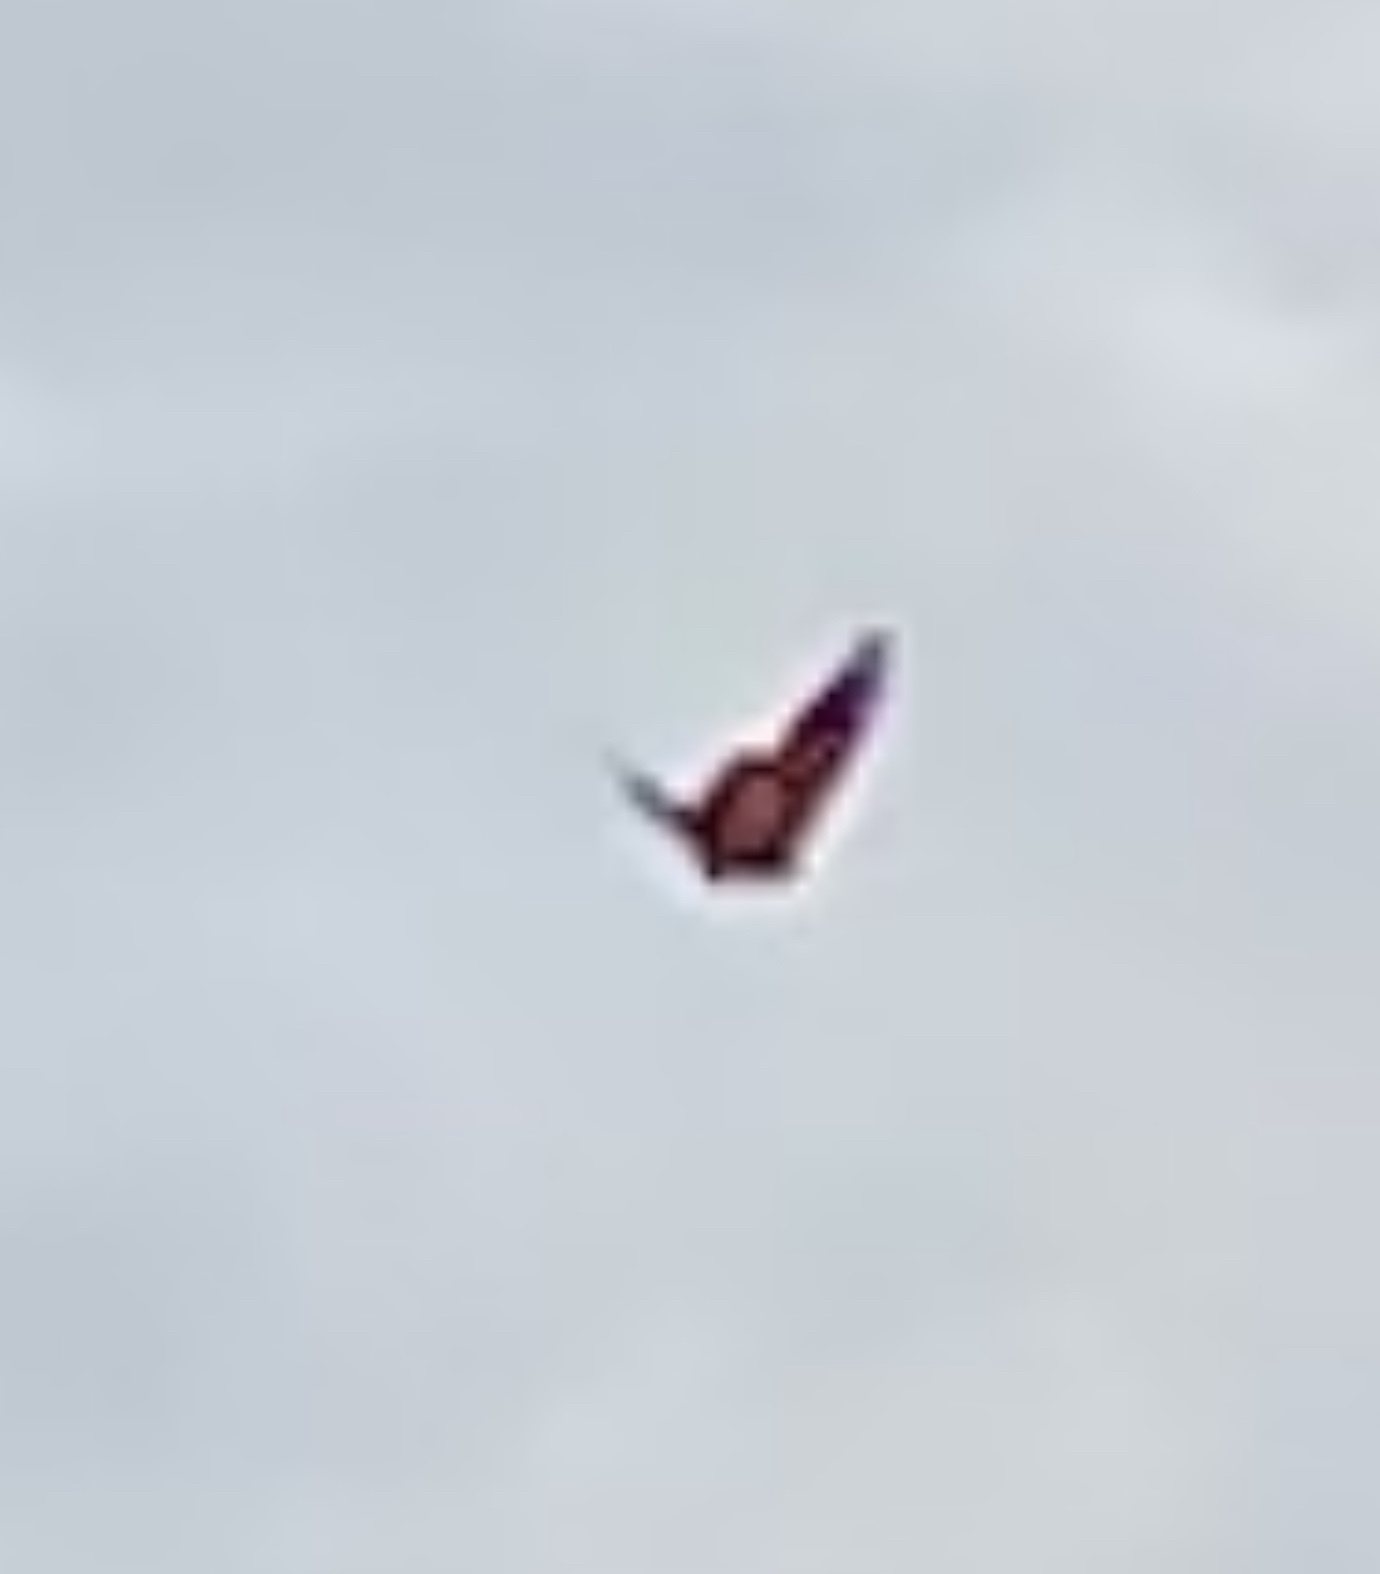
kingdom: Animalia
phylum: Arthropoda
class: Insecta
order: Lepidoptera
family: Nymphalidae
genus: Danaus
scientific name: Danaus plexippus
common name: Monarch
